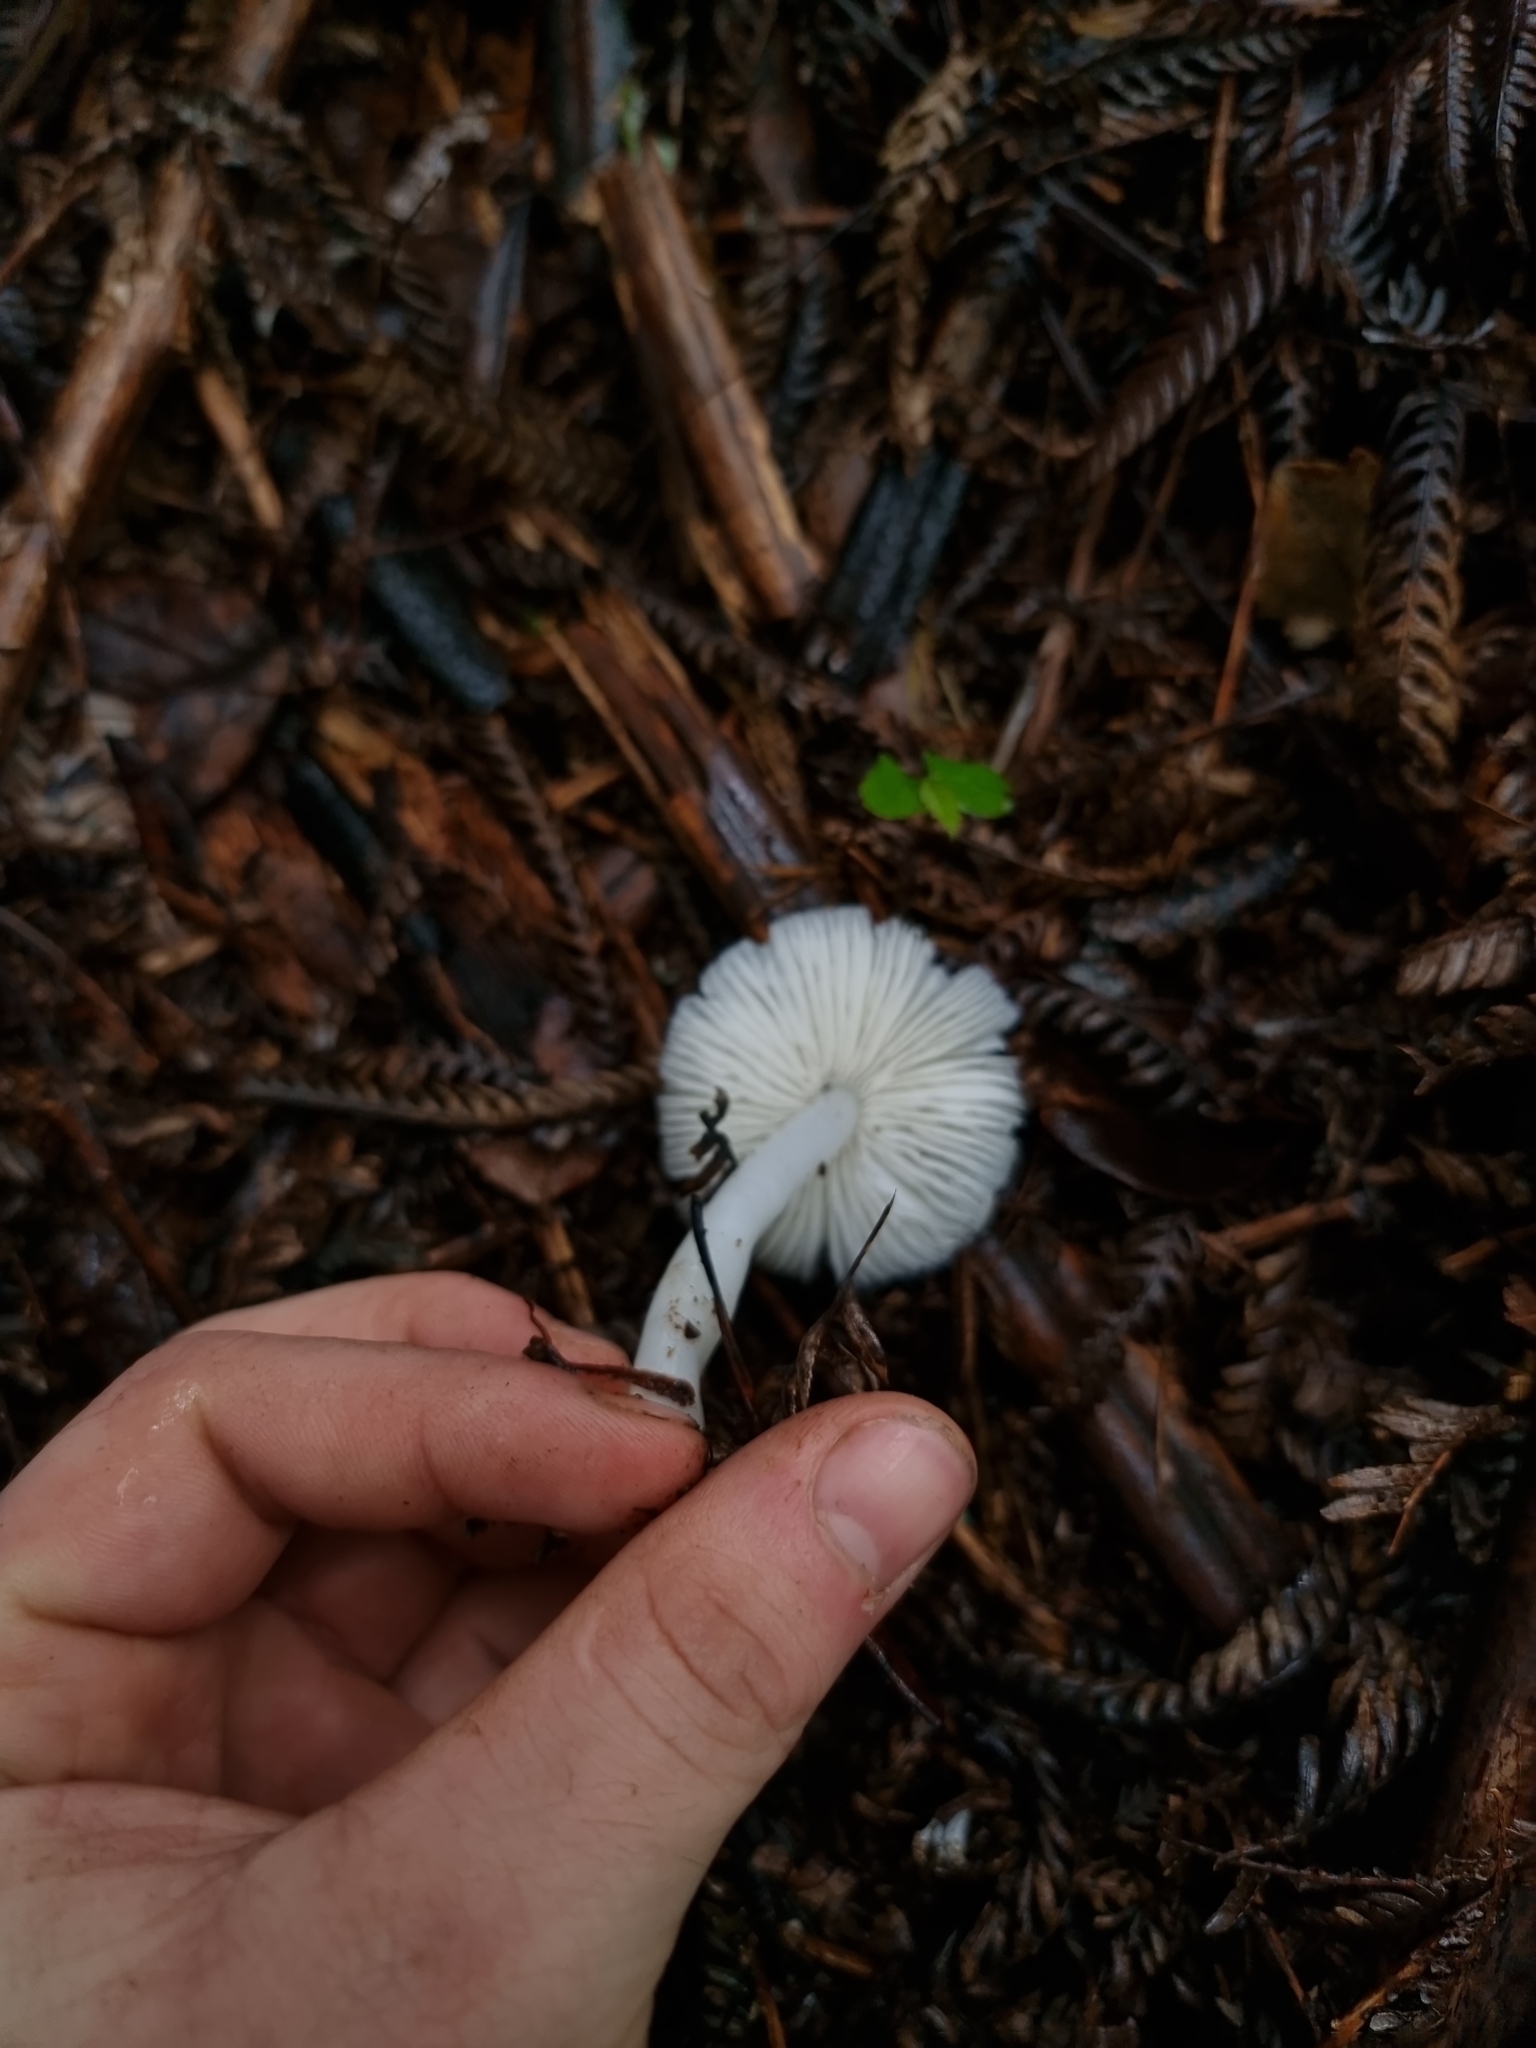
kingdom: Fungi
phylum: Basidiomycota
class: Agaricomycetes
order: Agaricales
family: Hygrophoraceae
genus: Humidicutis
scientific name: Humidicutis mavis
